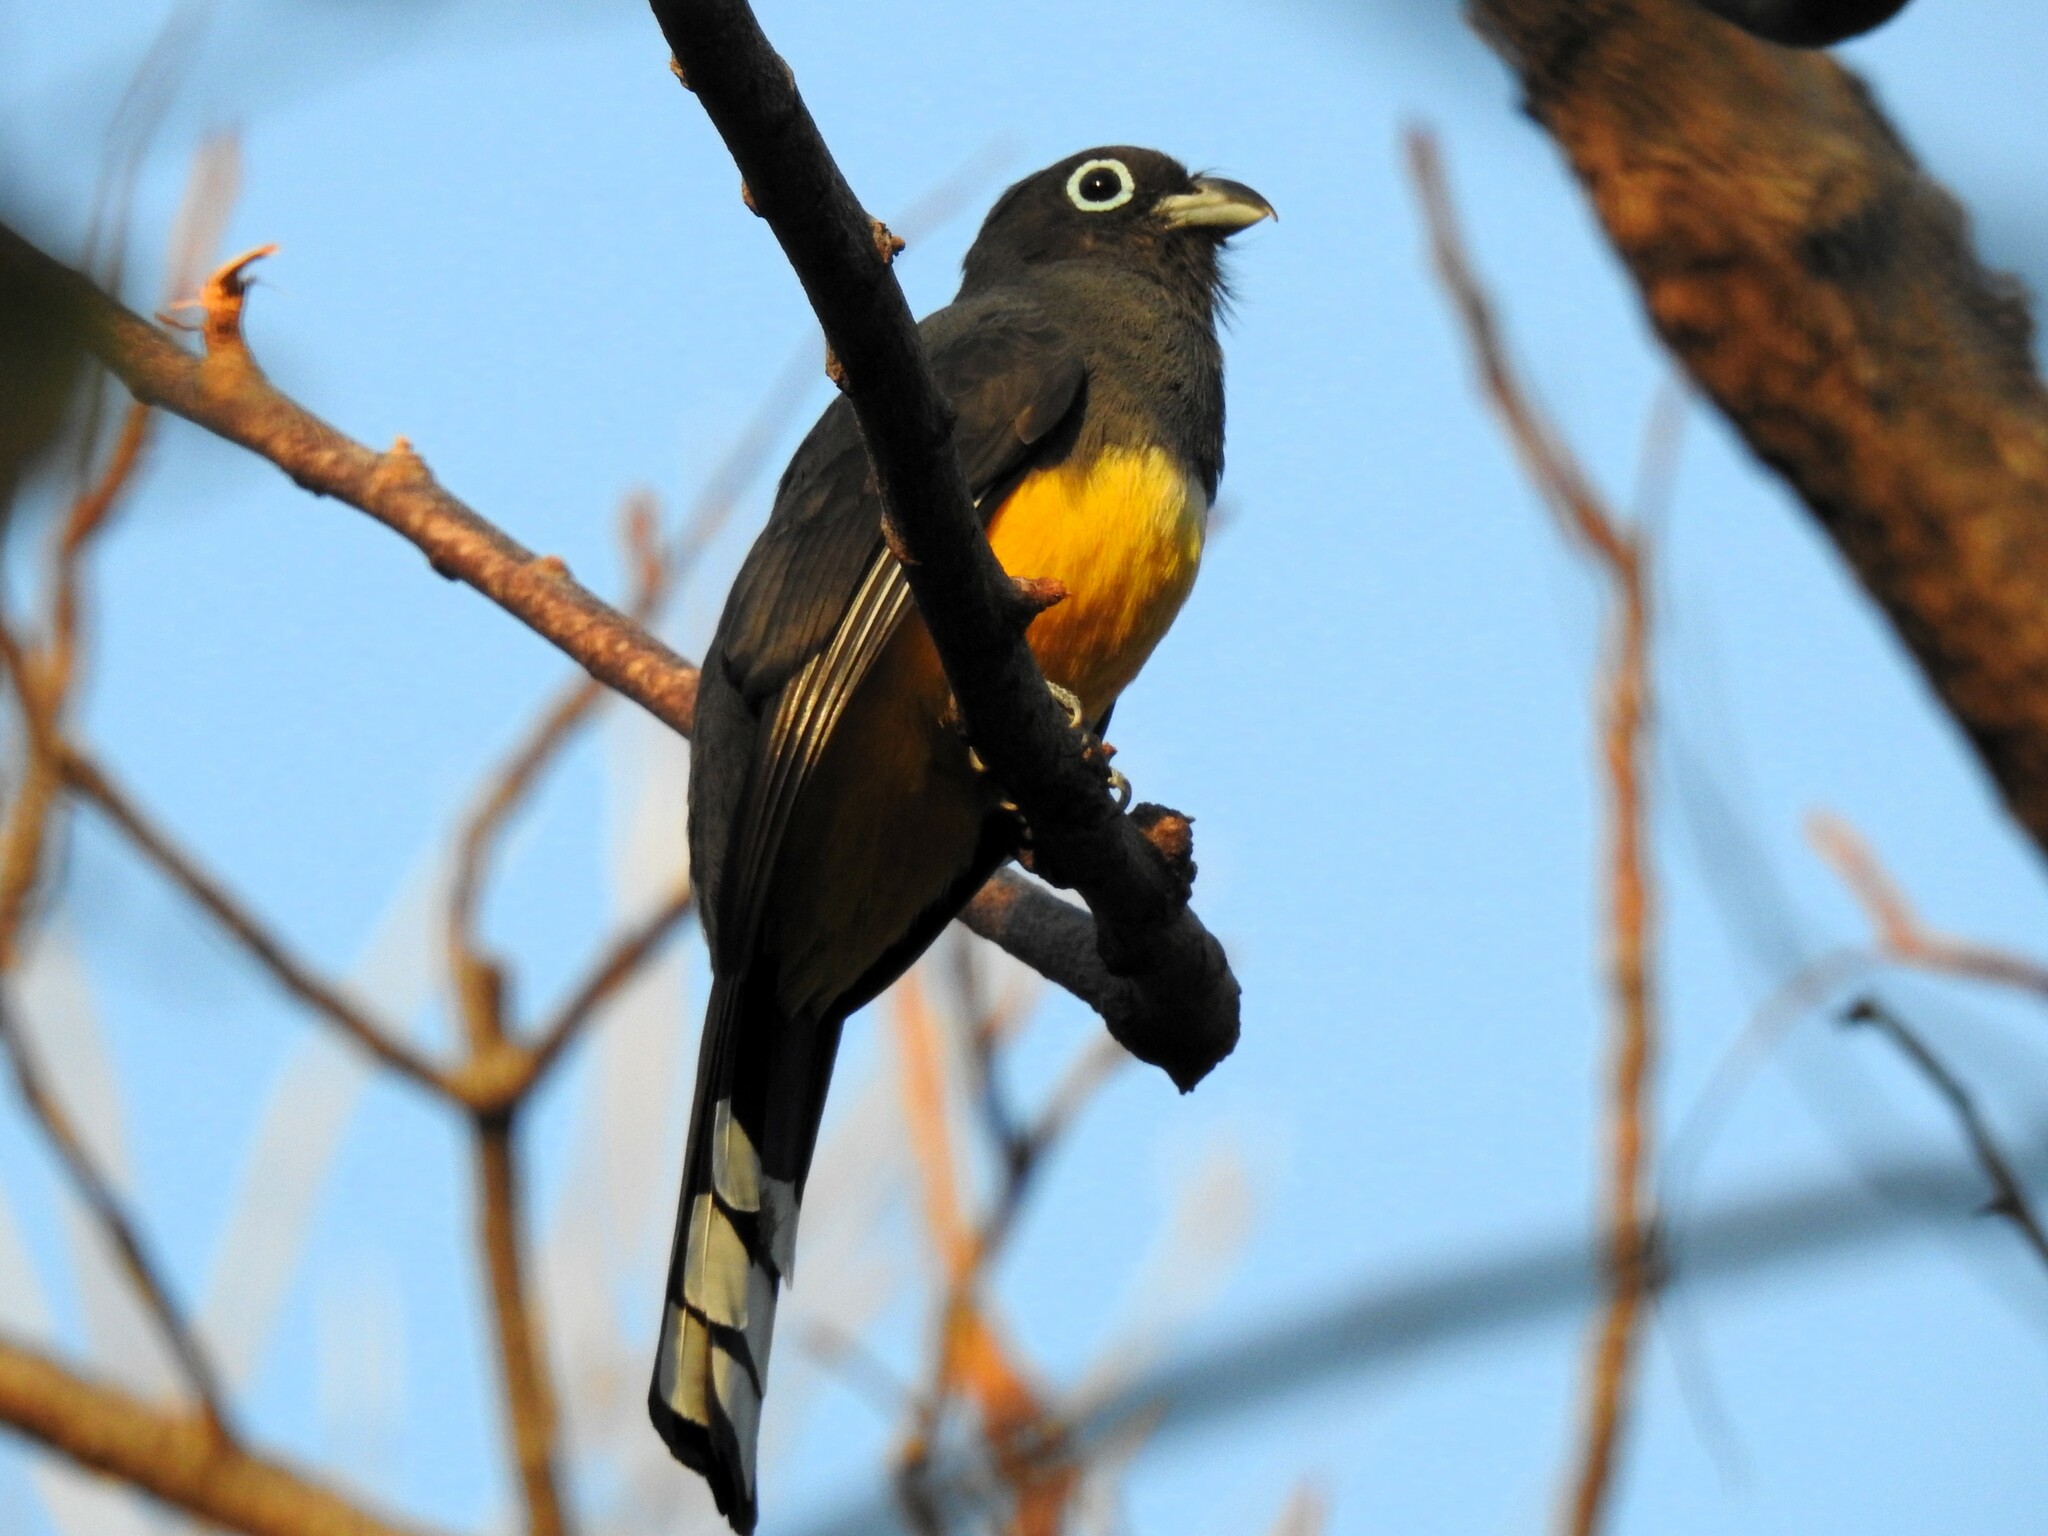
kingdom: Animalia
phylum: Chordata
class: Aves
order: Trogoniformes
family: Trogonidae
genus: Trogon
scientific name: Trogon melanocephalus
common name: Black-headed trogon
